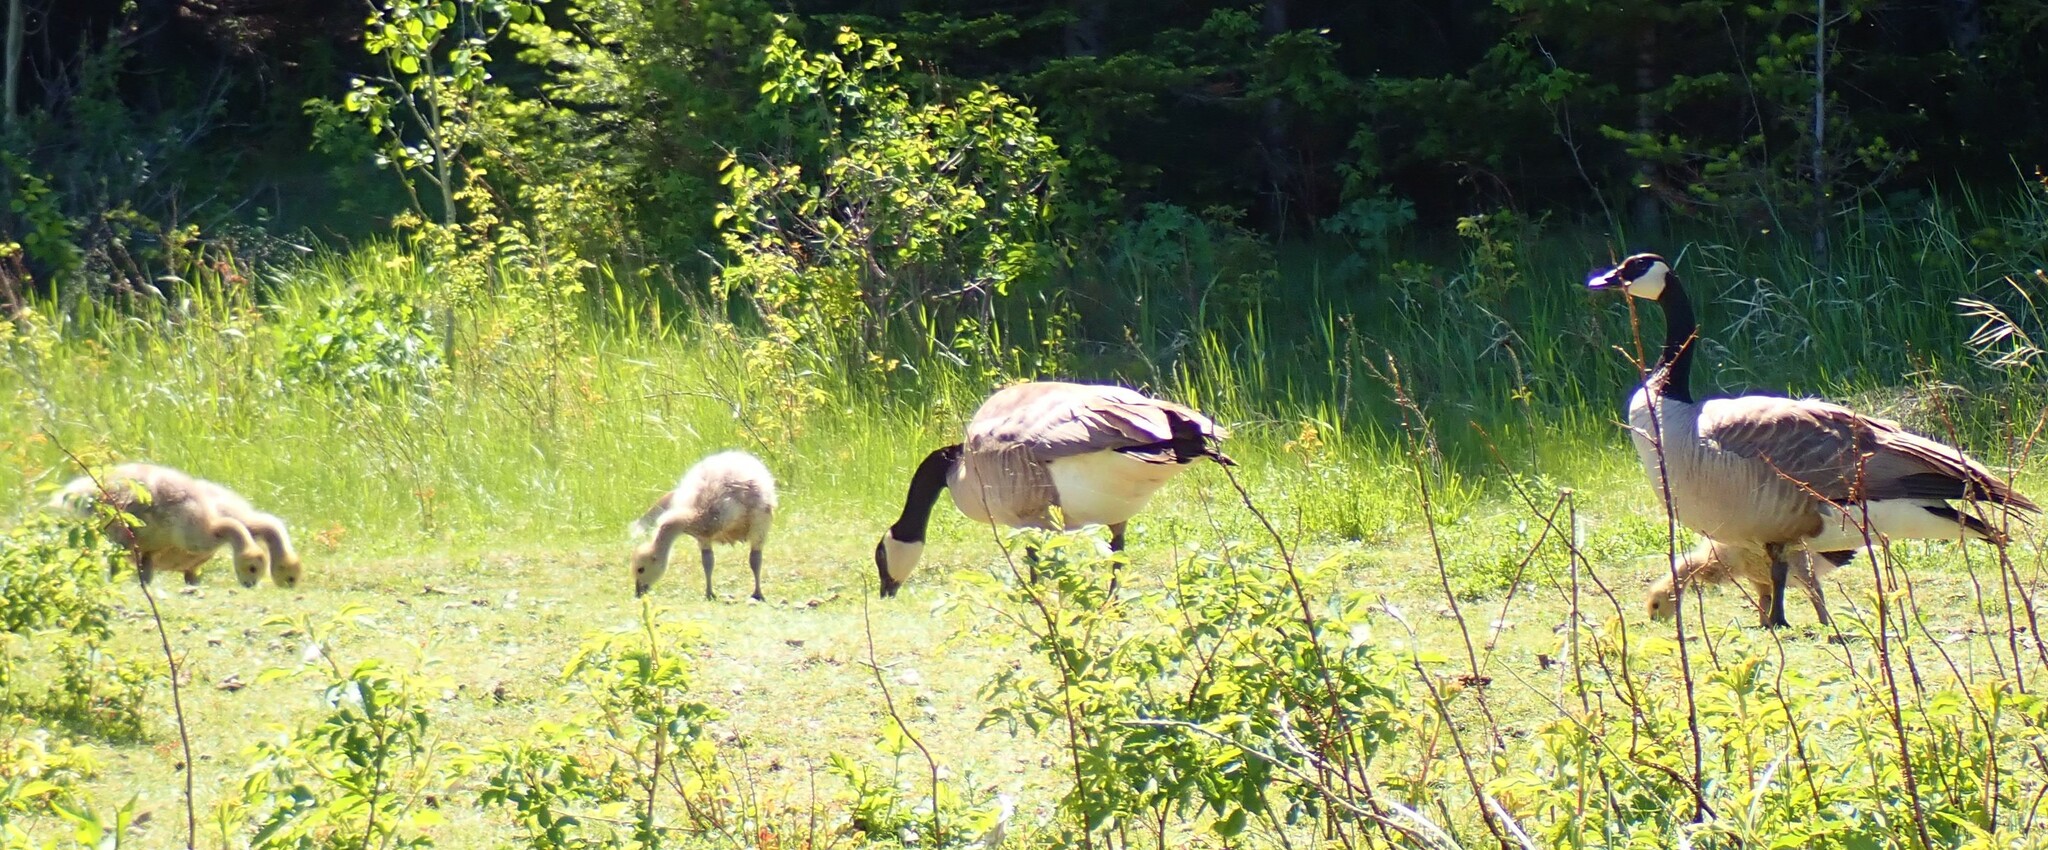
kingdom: Animalia
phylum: Chordata
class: Aves
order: Anseriformes
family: Anatidae
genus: Branta
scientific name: Branta canadensis
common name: Canada goose
